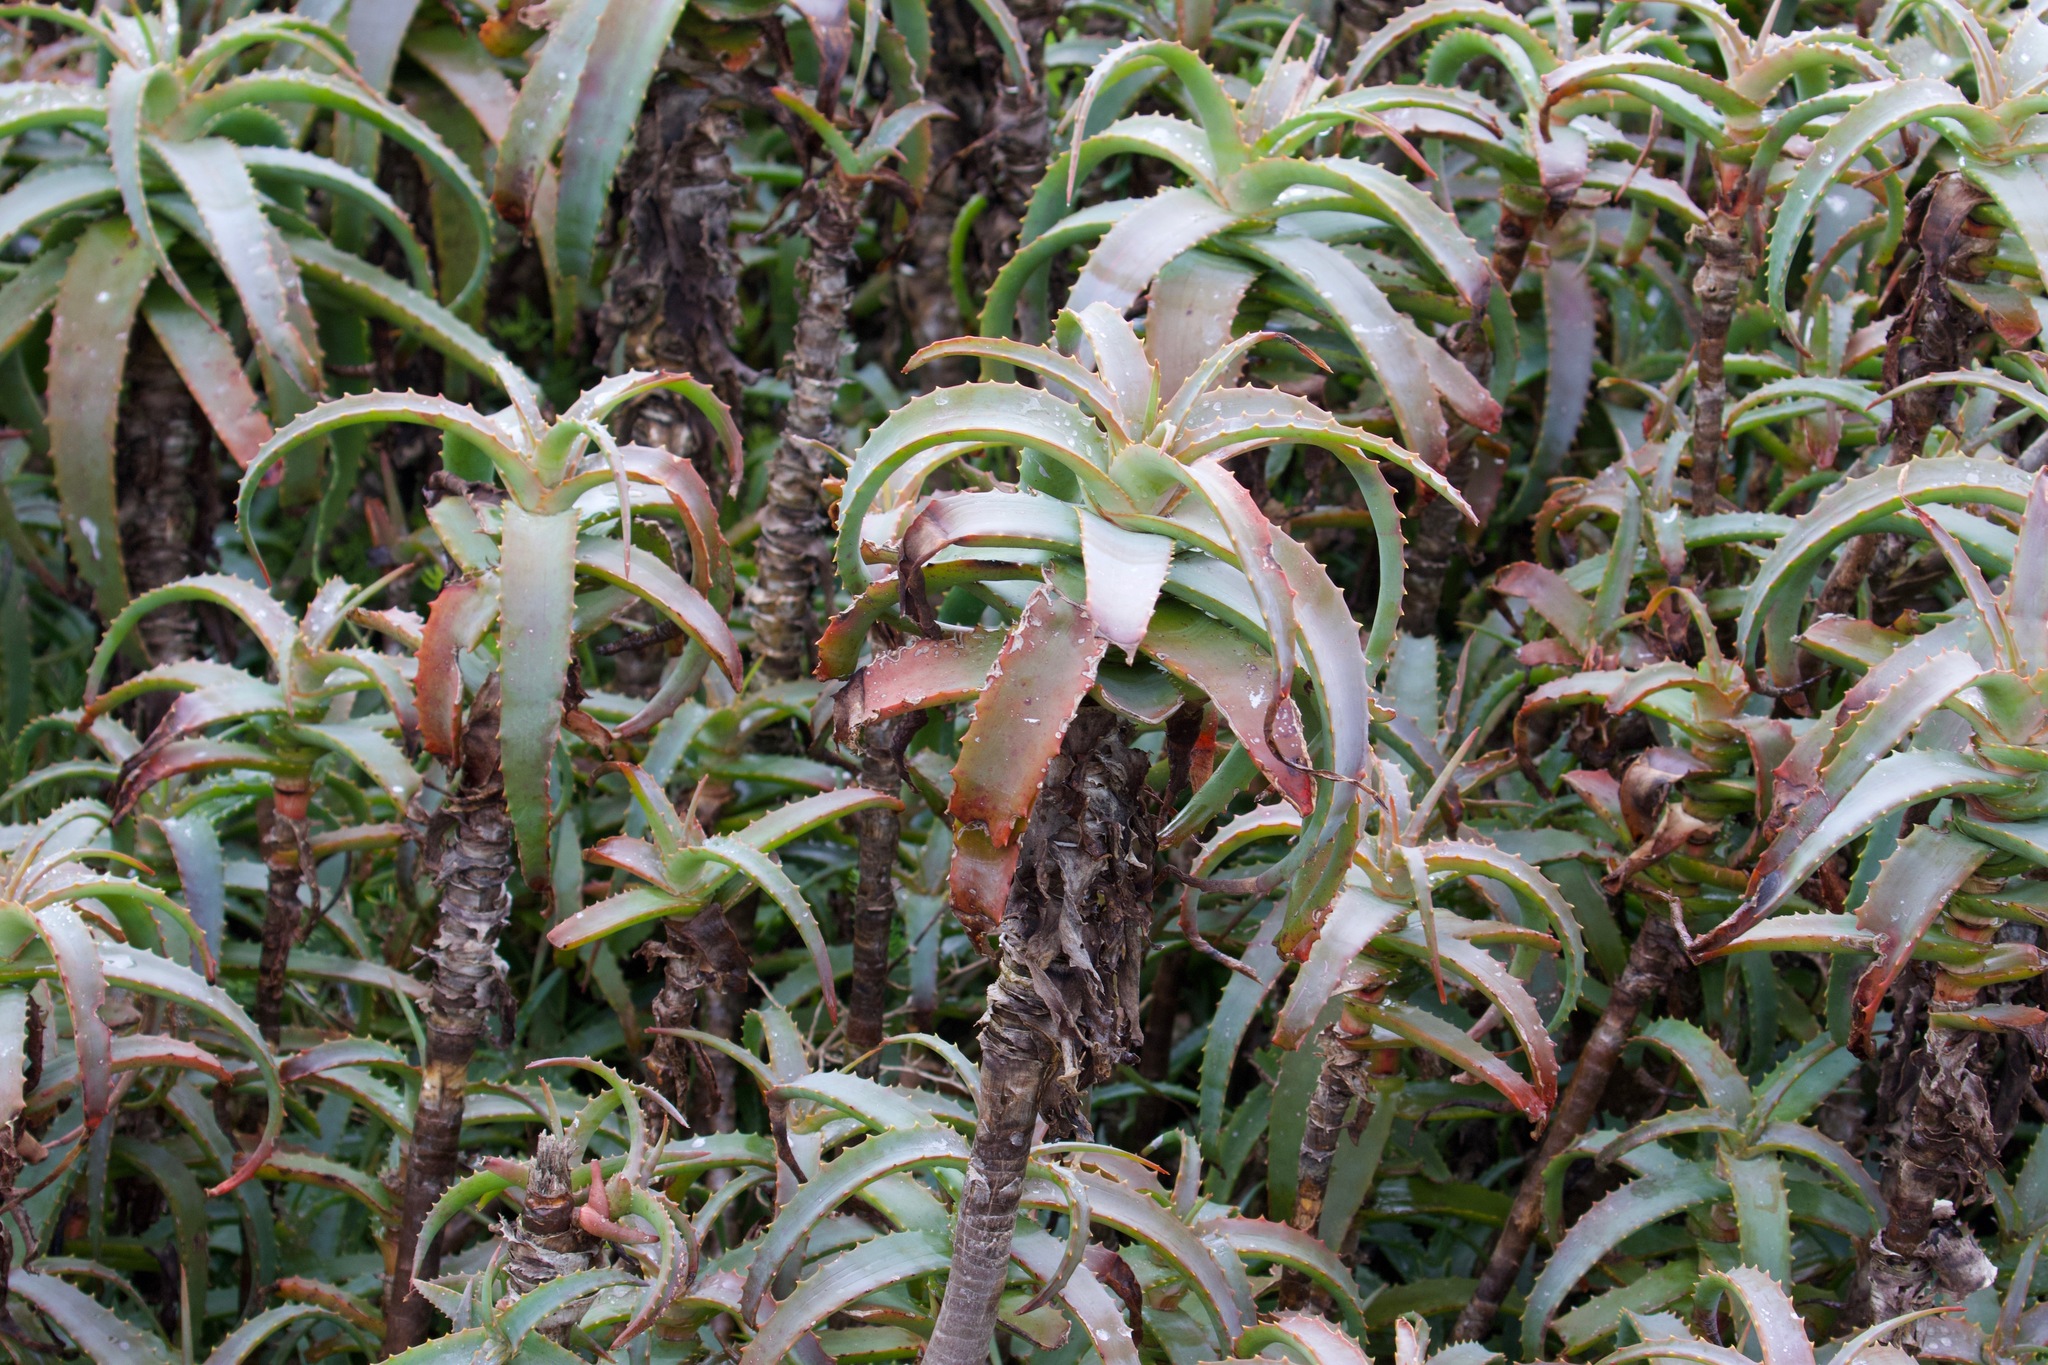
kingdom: Plantae
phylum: Tracheophyta
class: Liliopsida
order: Asparagales
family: Asphodelaceae
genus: Aloe
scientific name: Aloe arborescens
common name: Candelabra aloe
